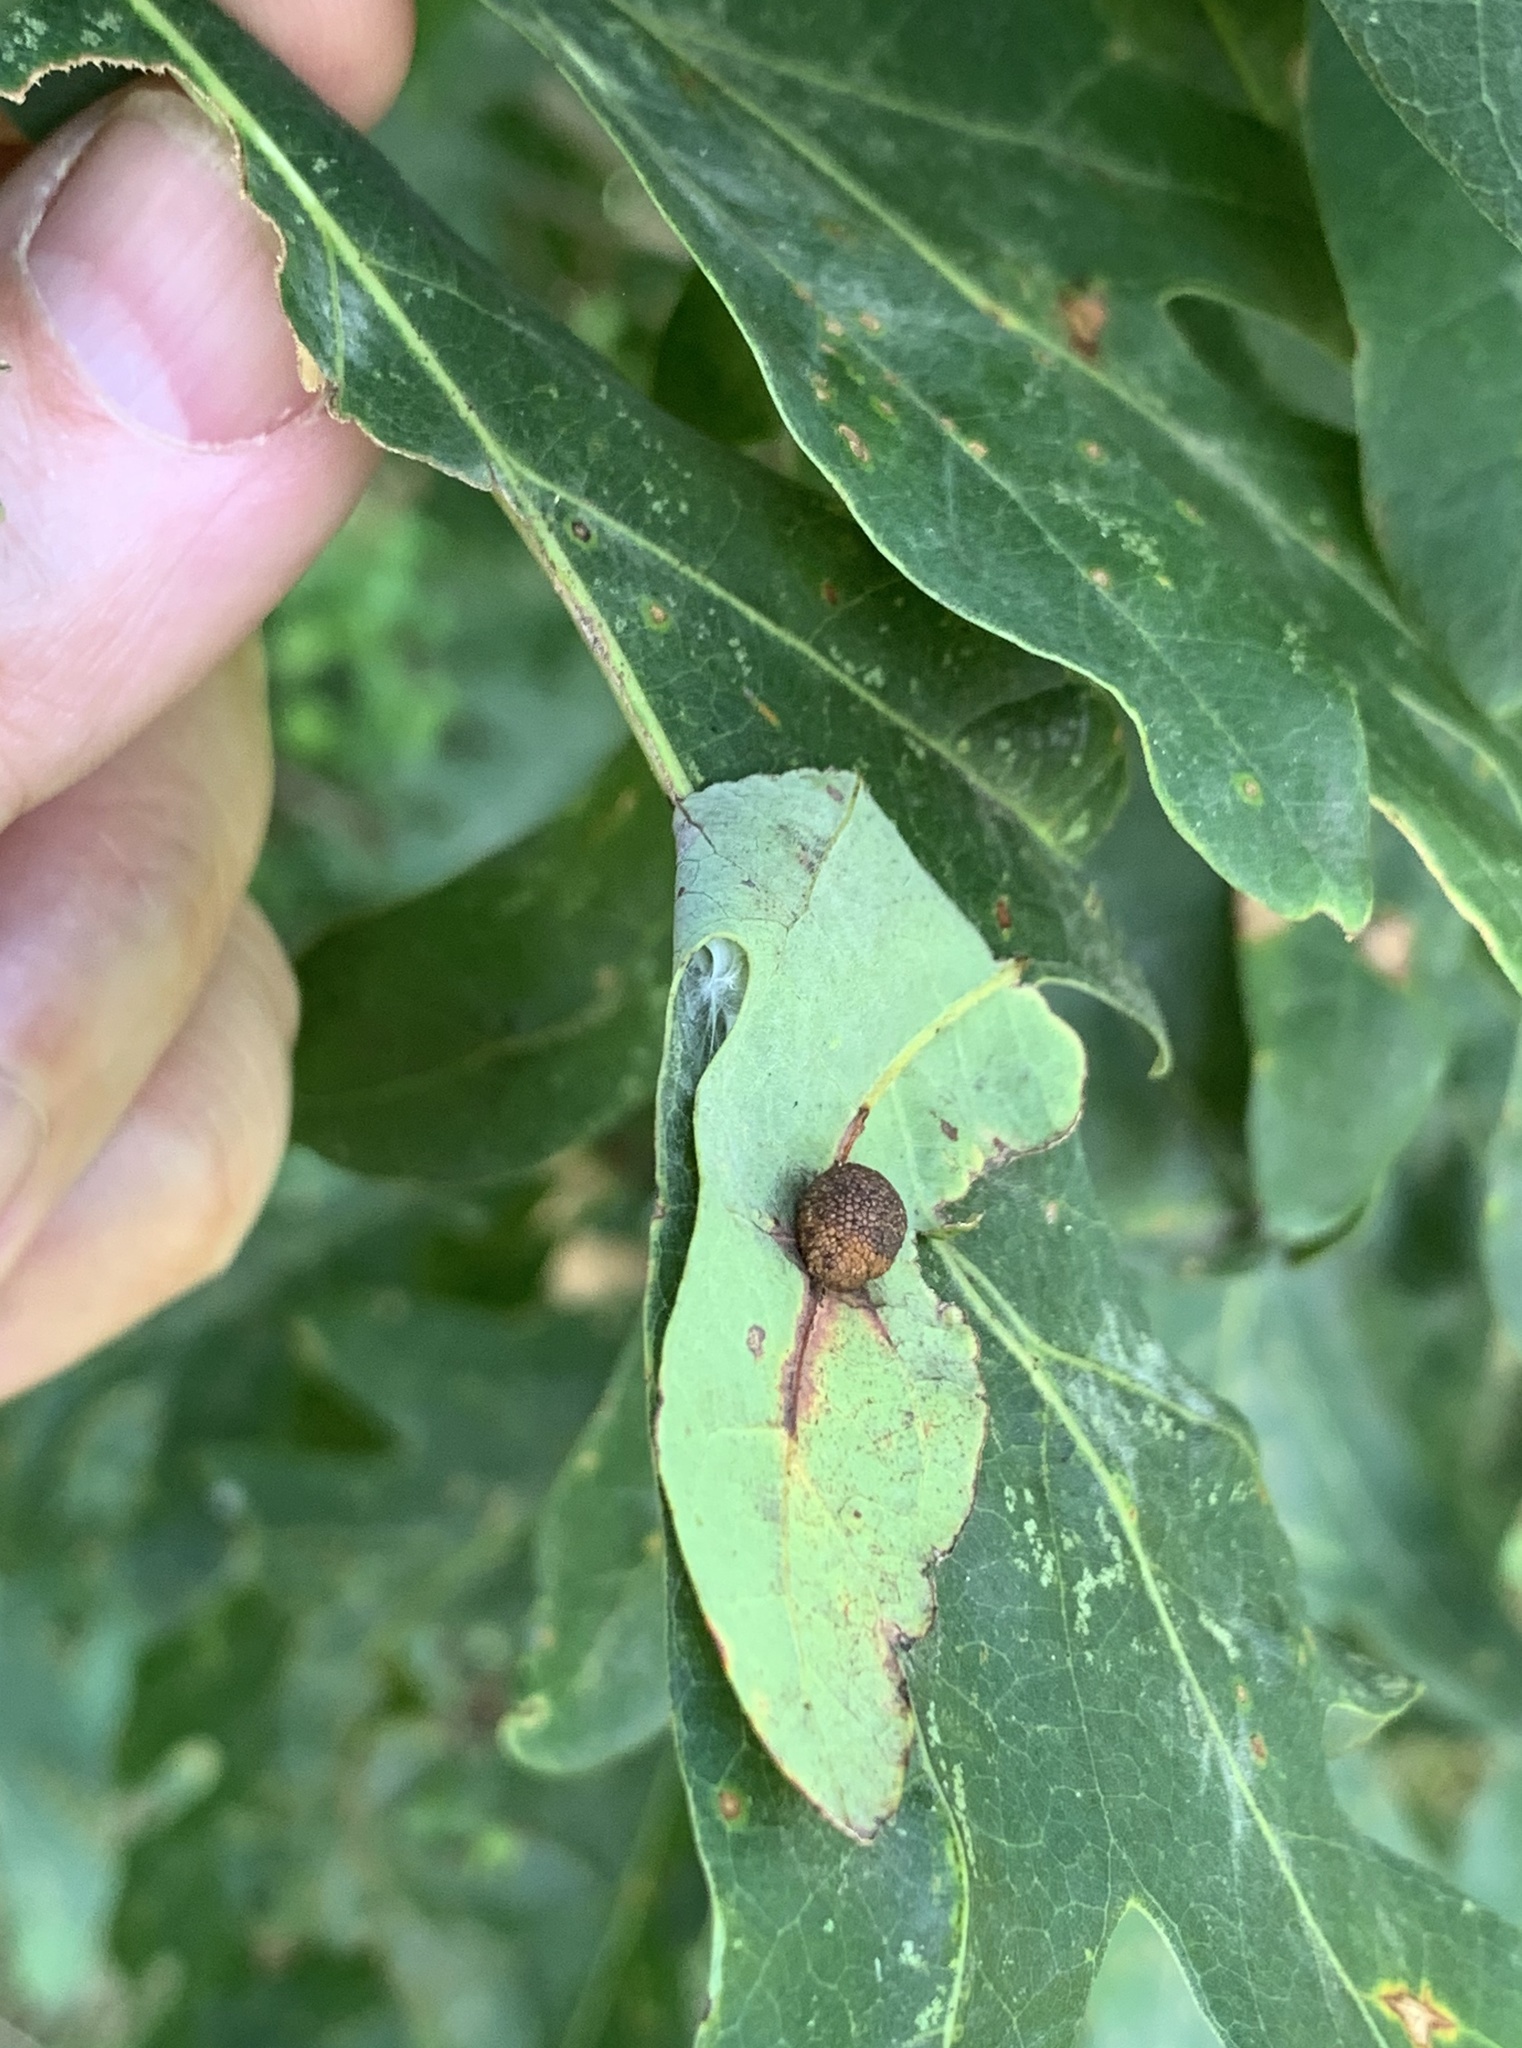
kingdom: Animalia
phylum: Arthropoda
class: Insecta
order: Hymenoptera
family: Cynipidae
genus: Acraspis
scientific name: Acraspis
